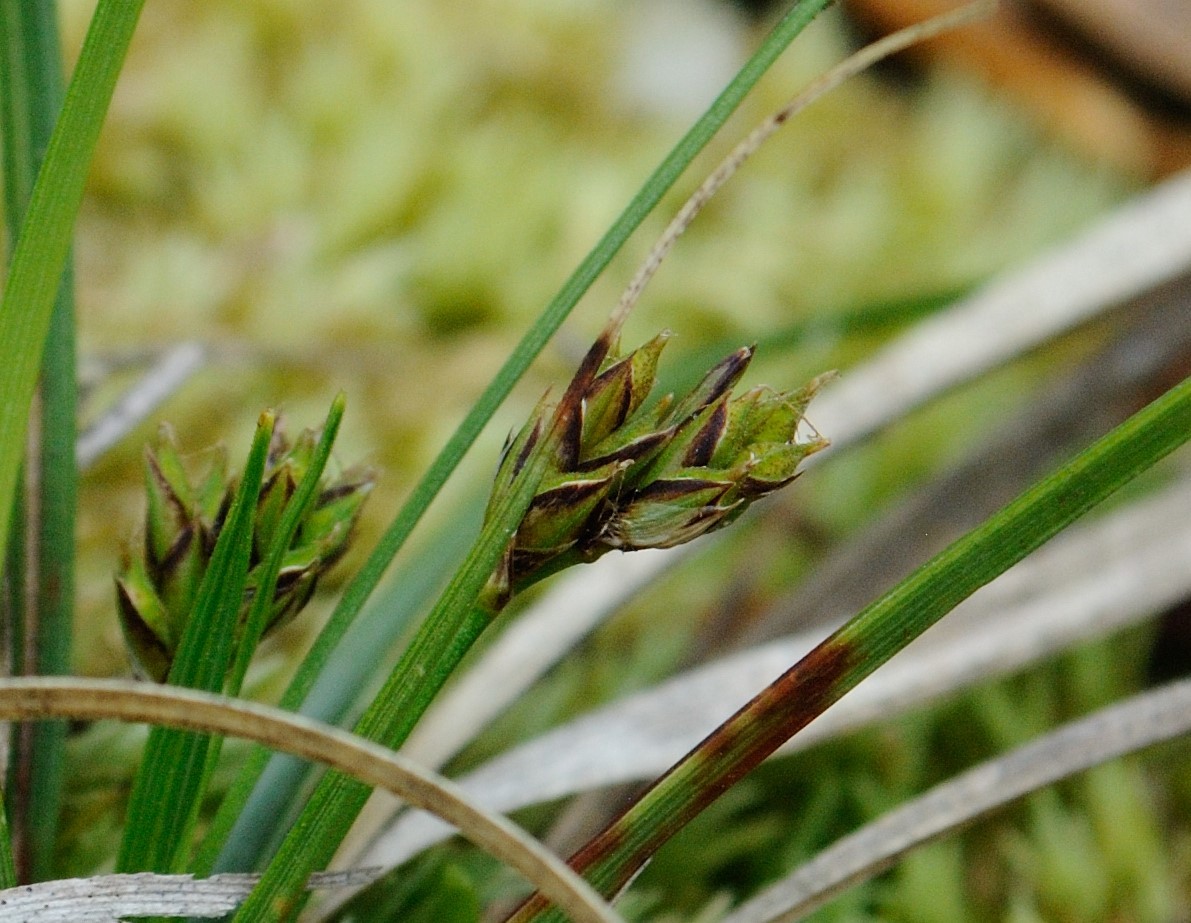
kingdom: Plantae
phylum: Tracheophyta
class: Liliopsida
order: Poales
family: Cyperaceae
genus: Carex
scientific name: Carex nigromarginata
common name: Black-edged sedge
